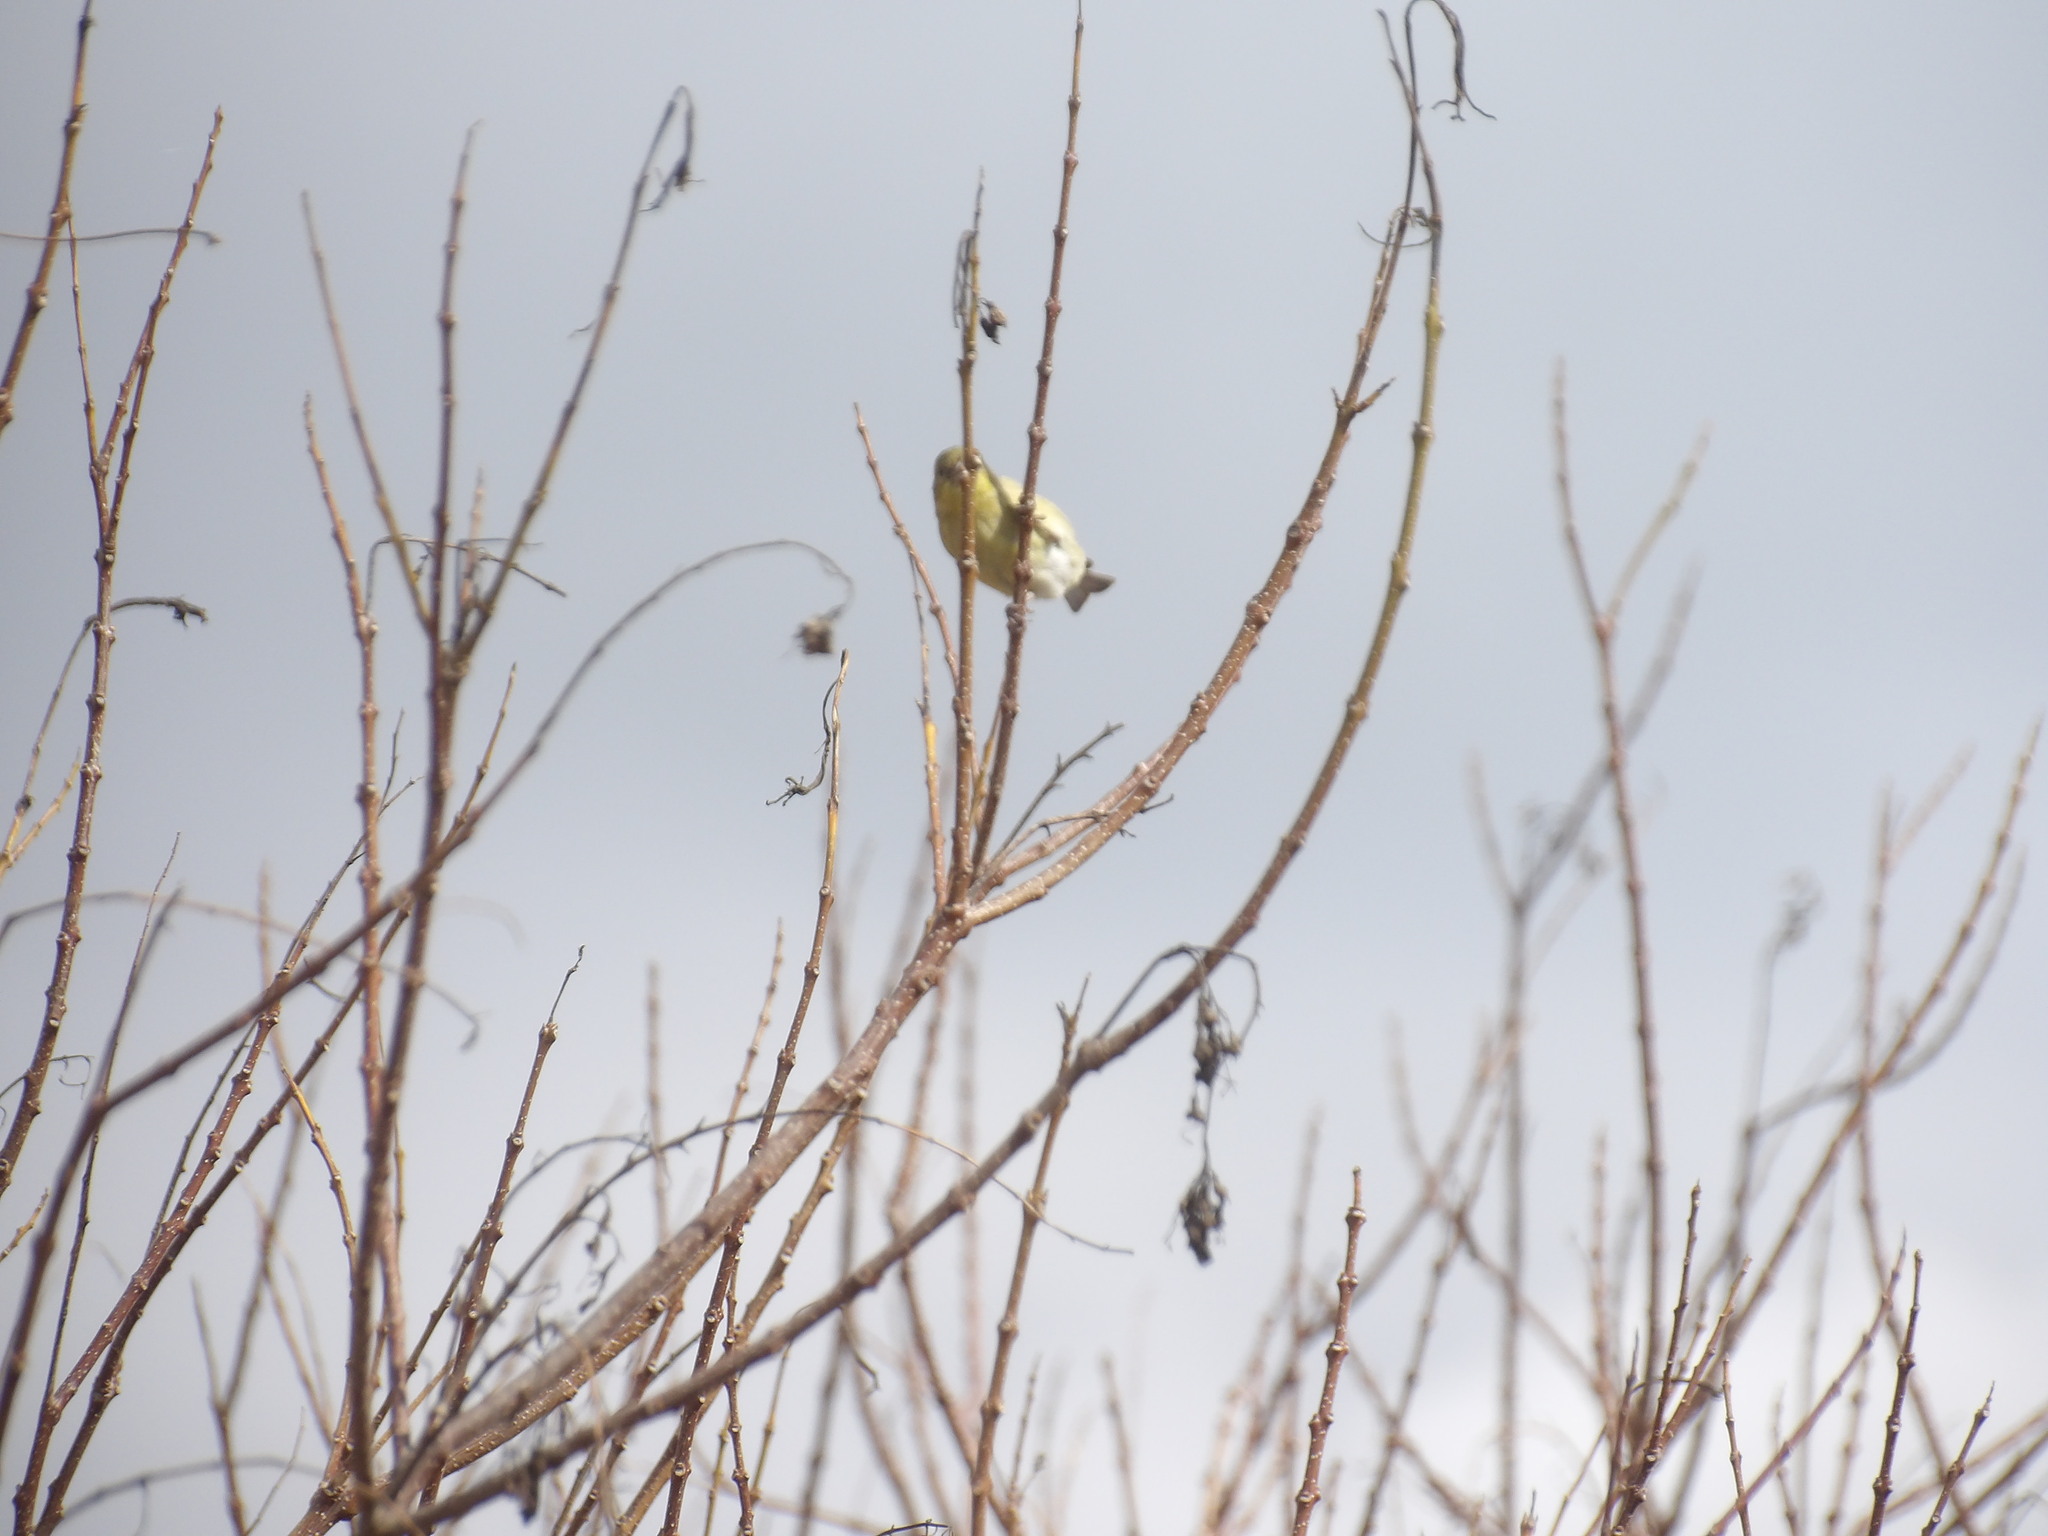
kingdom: Animalia
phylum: Chordata
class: Aves
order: Passeriformes
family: Fringillidae
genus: Spinus
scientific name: Spinus psaltria
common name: Lesser goldfinch
